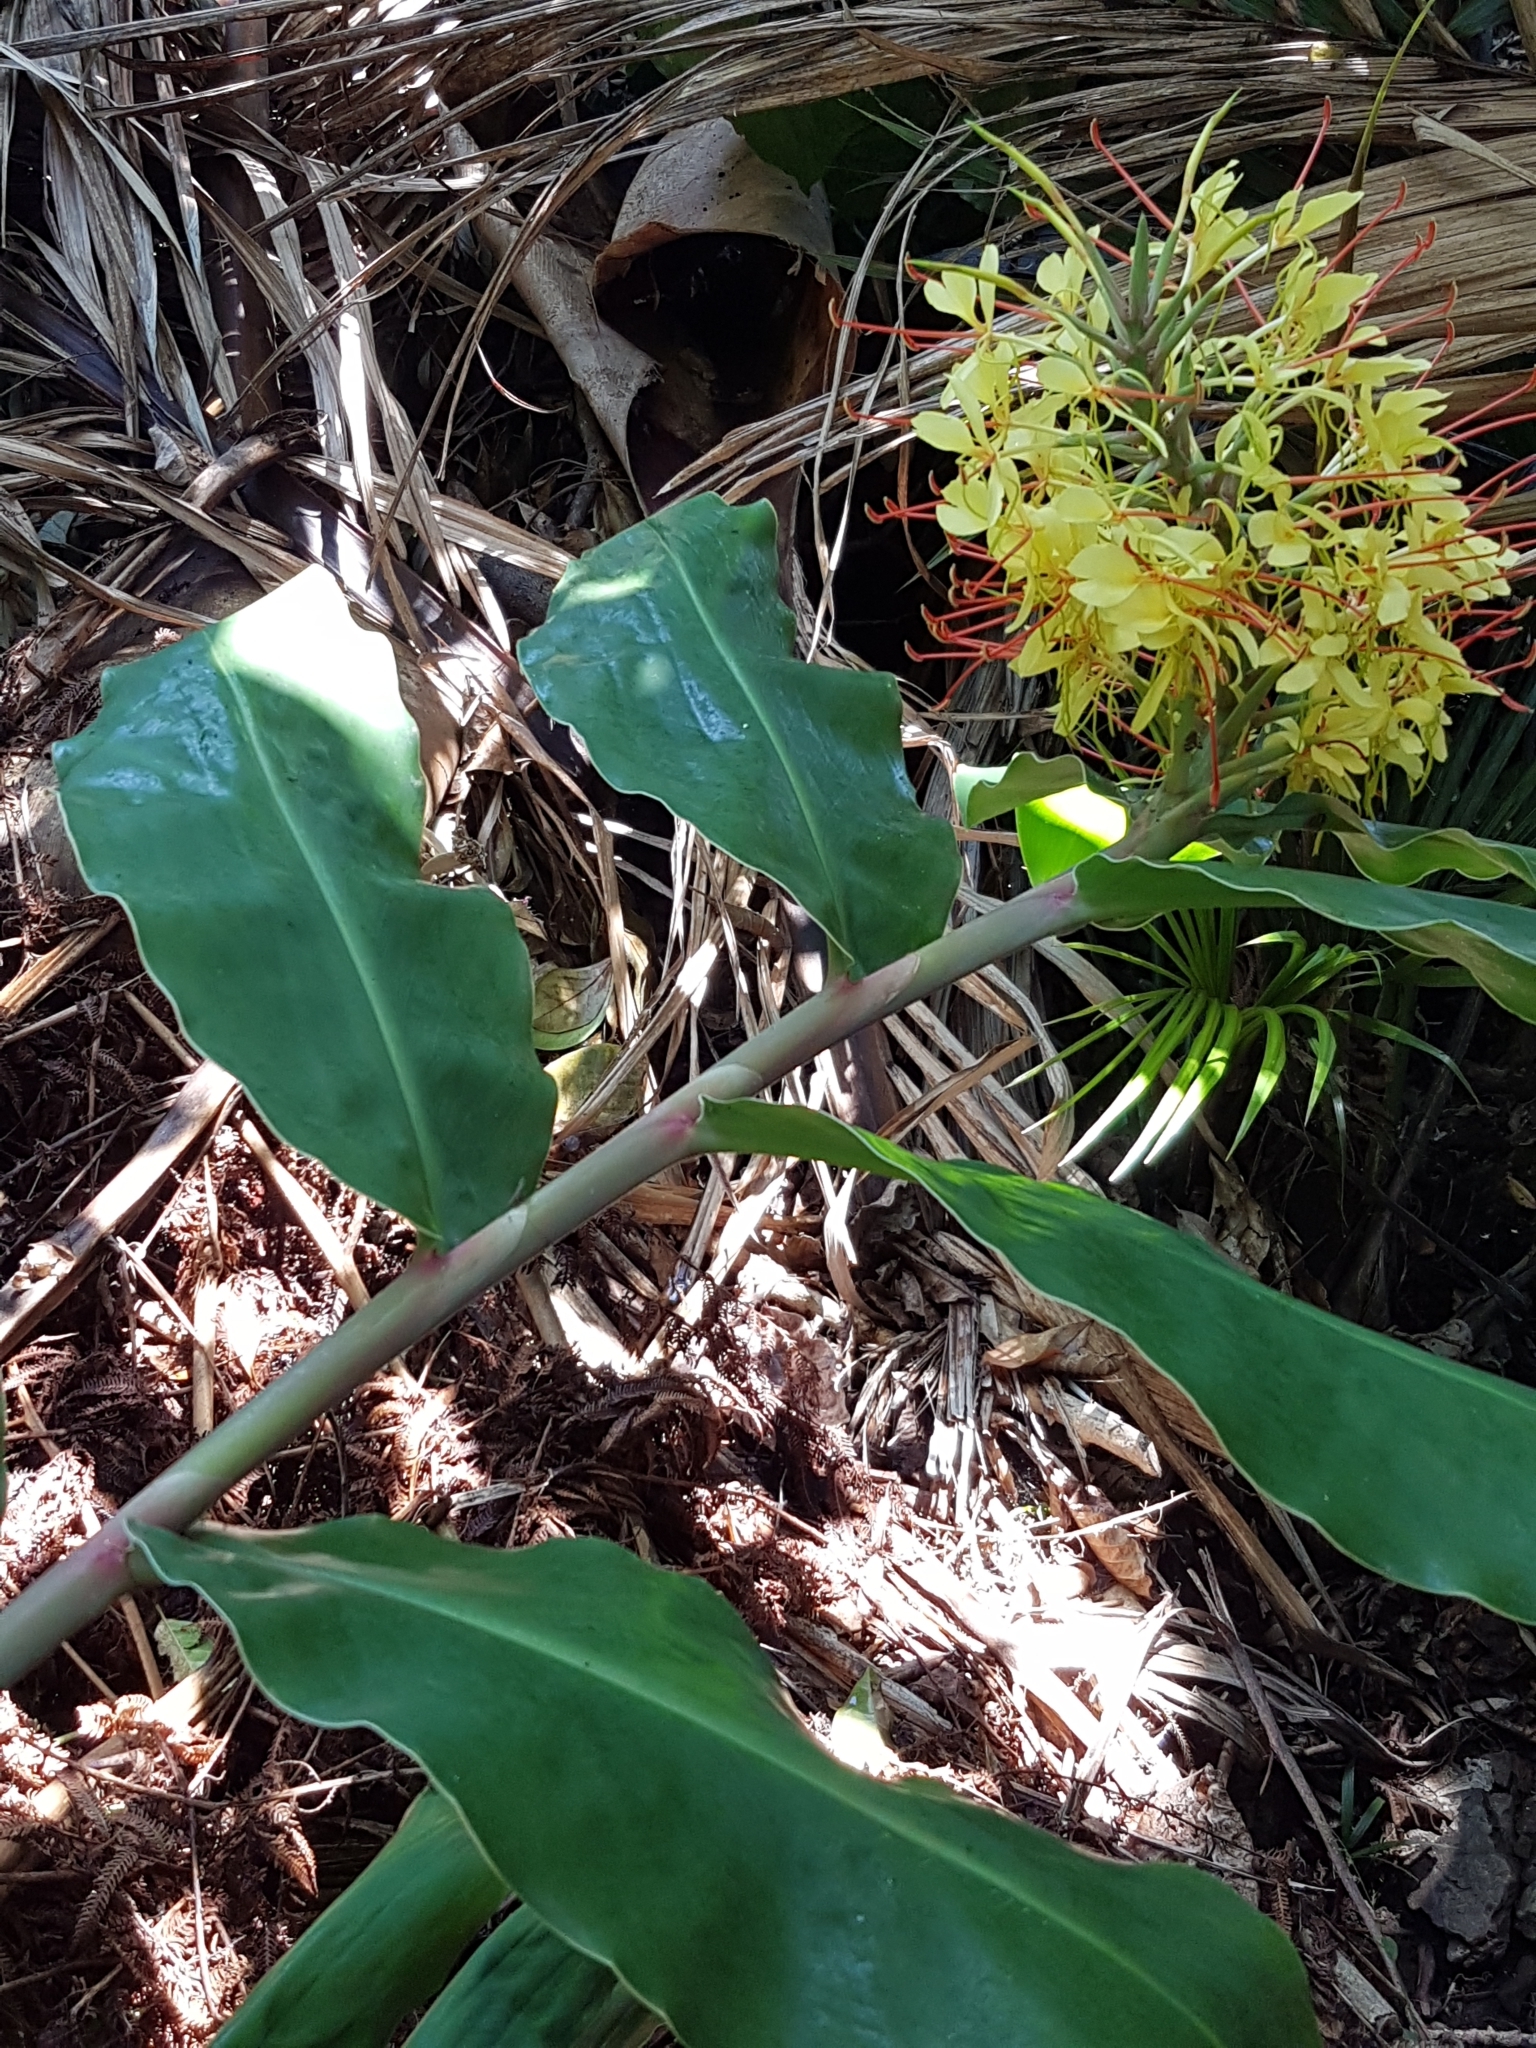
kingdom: Plantae
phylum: Tracheophyta
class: Liliopsida
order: Zingiberales
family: Zingiberaceae
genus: Hedychium
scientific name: Hedychium gardnerianum
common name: Himalayan ginger
